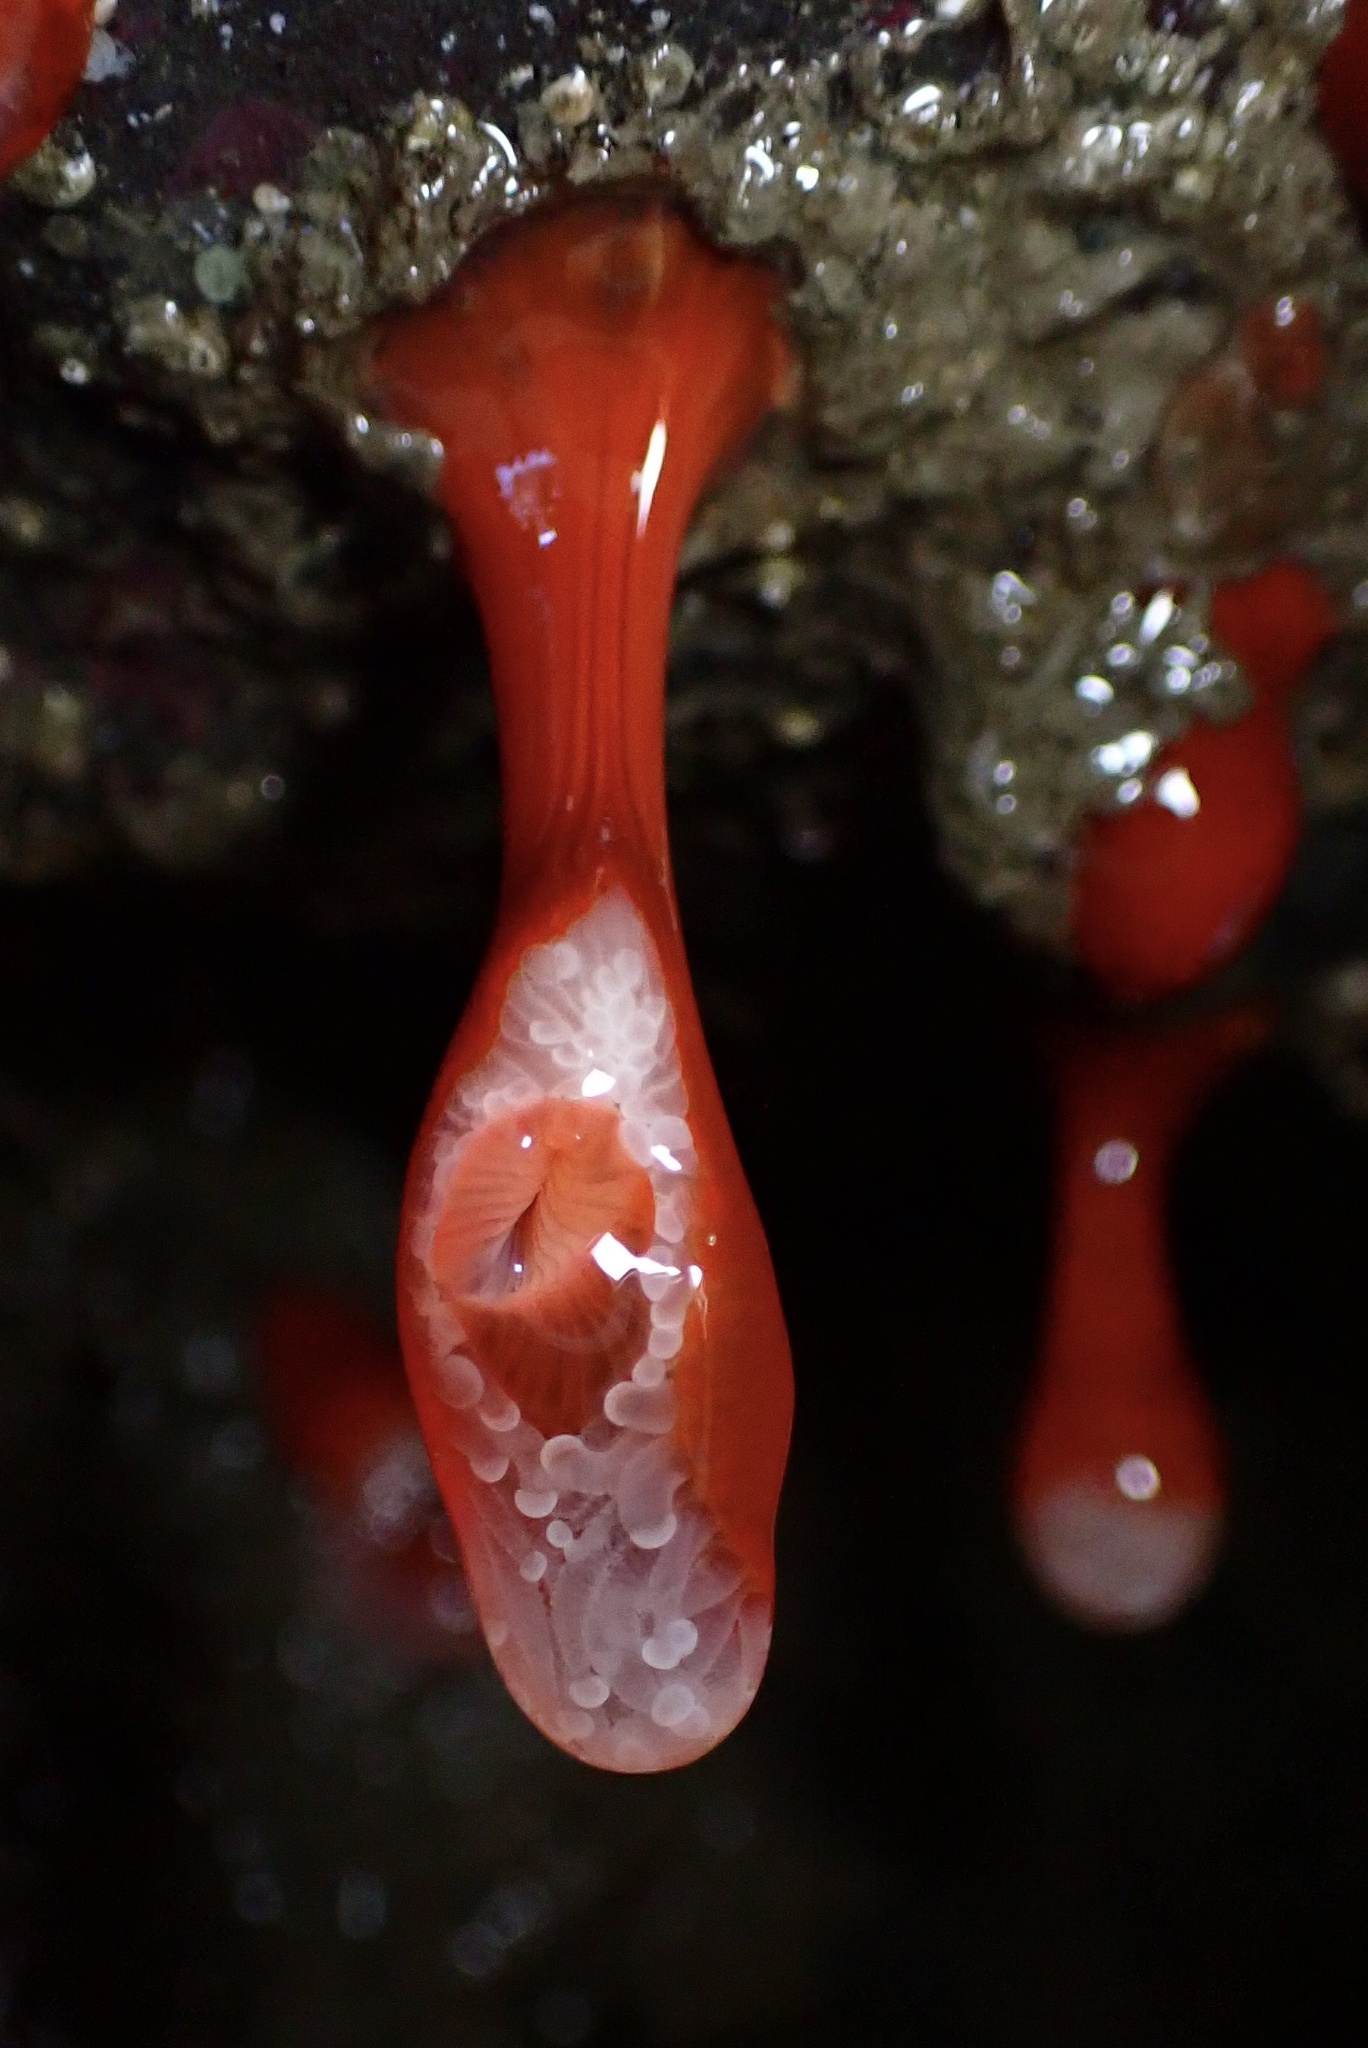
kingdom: Animalia
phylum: Cnidaria
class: Anthozoa
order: Corallimorpharia
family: Corallimorphidae
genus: Corynactis
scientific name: Corynactis californica
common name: Strawberry corallimorpharian
